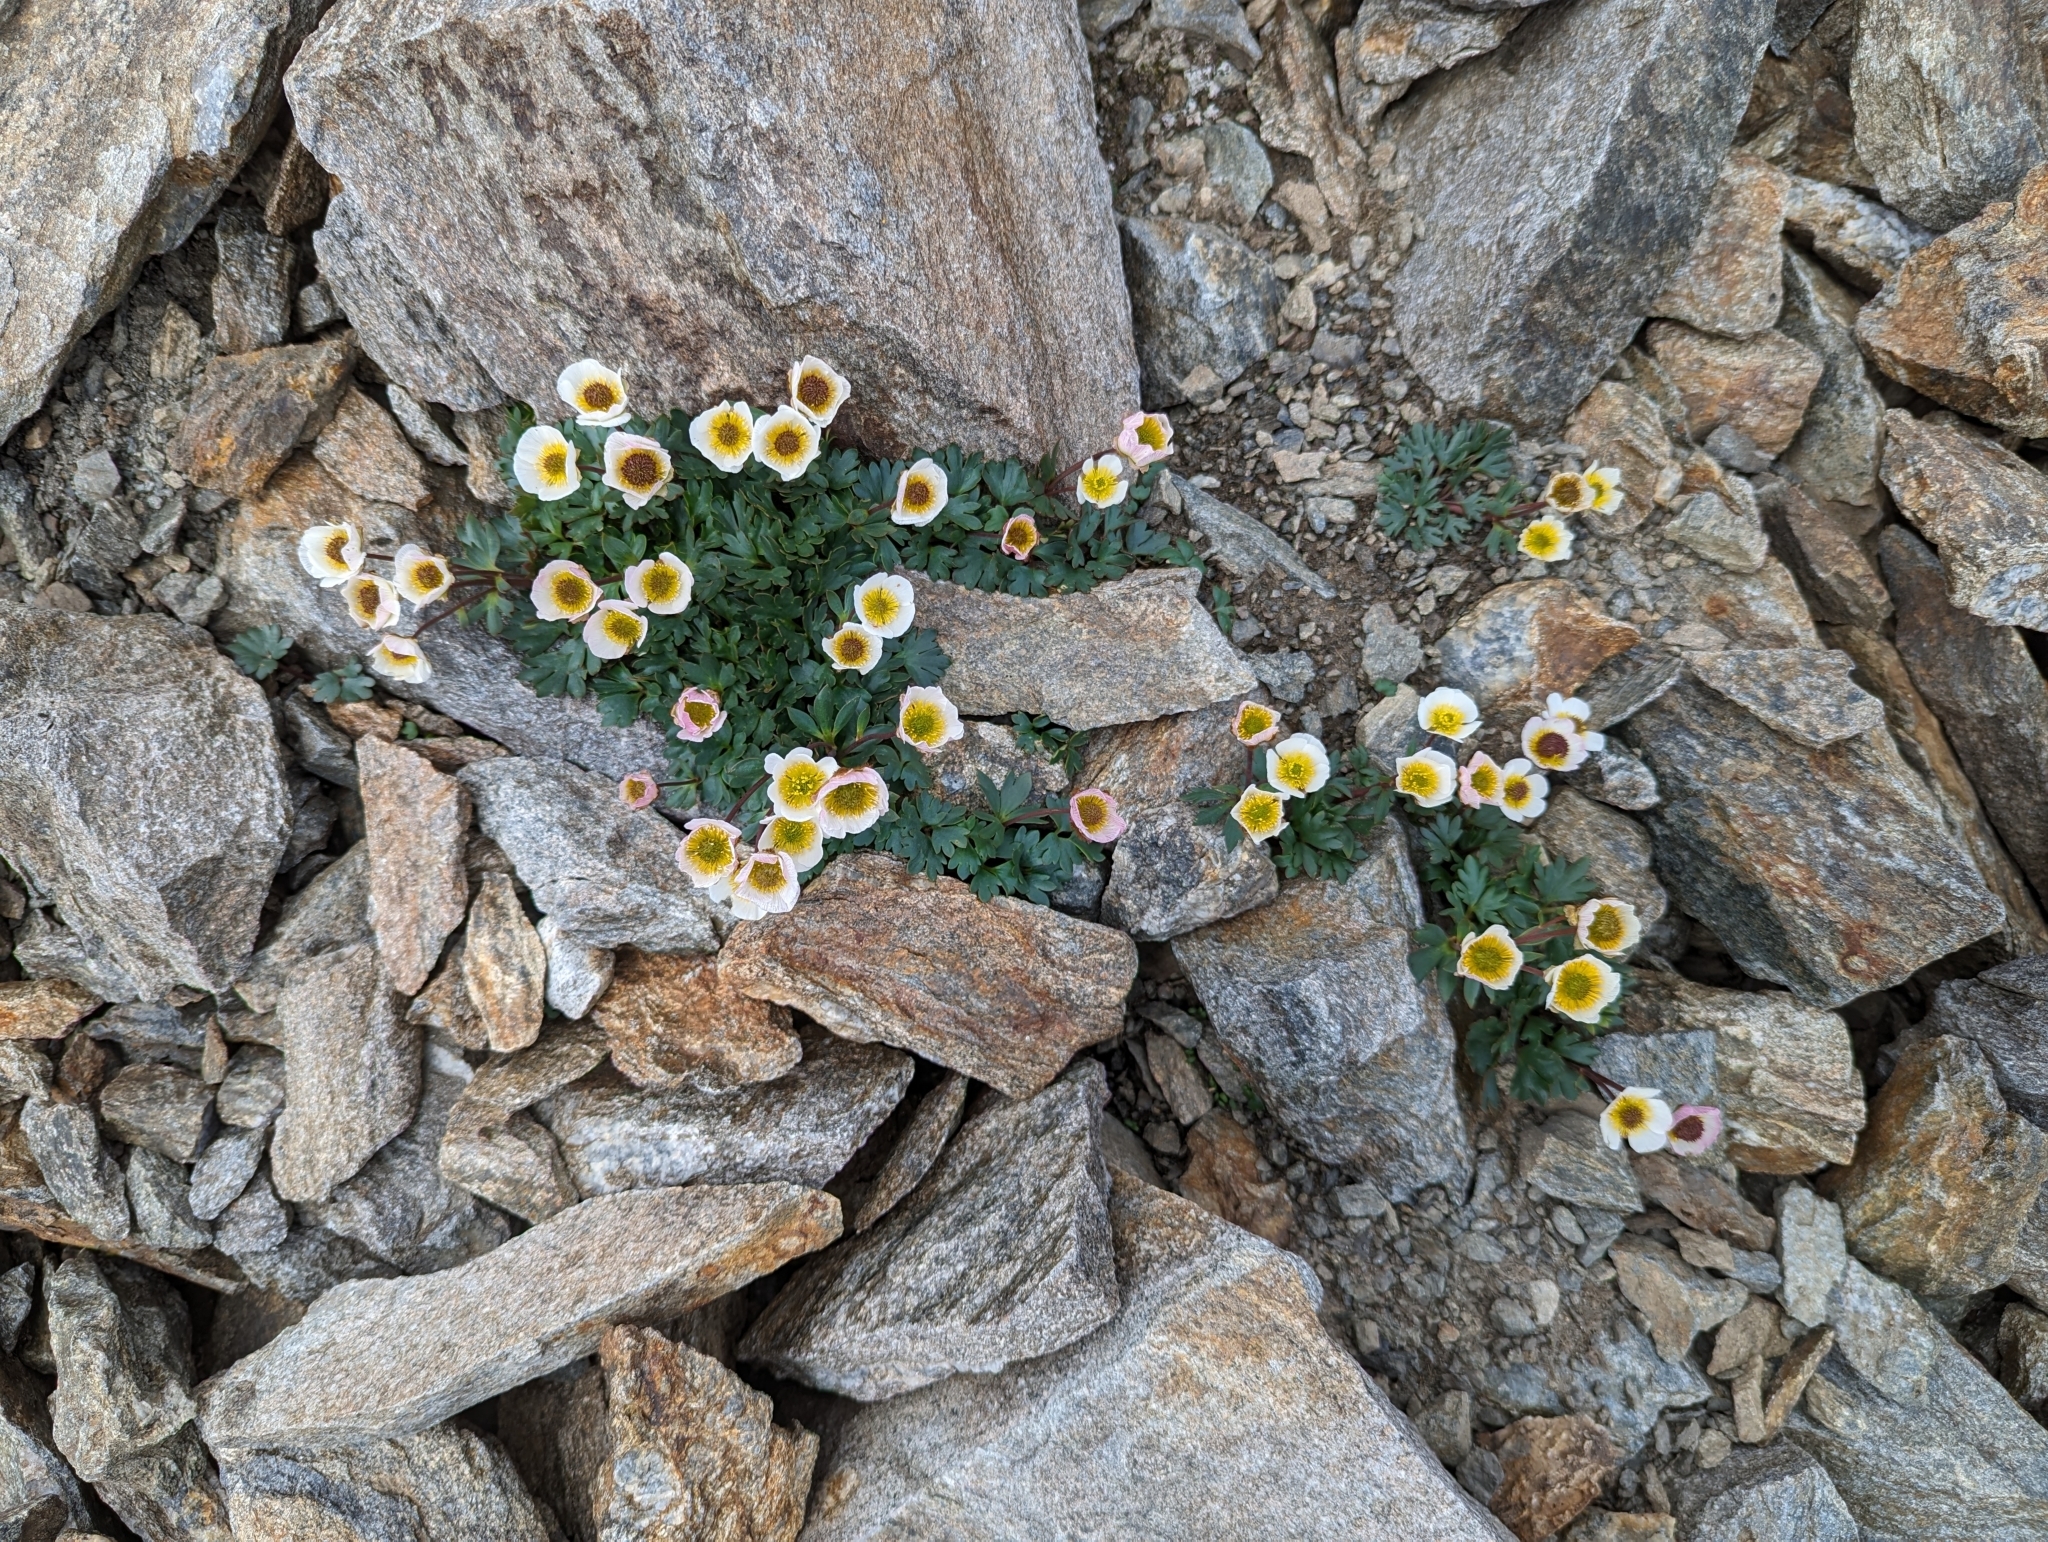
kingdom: Plantae
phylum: Tracheophyta
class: Magnoliopsida
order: Ranunculales
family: Ranunculaceae
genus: Ranunculus
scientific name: Ranunculus glacialis
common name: Glacier buttercup
